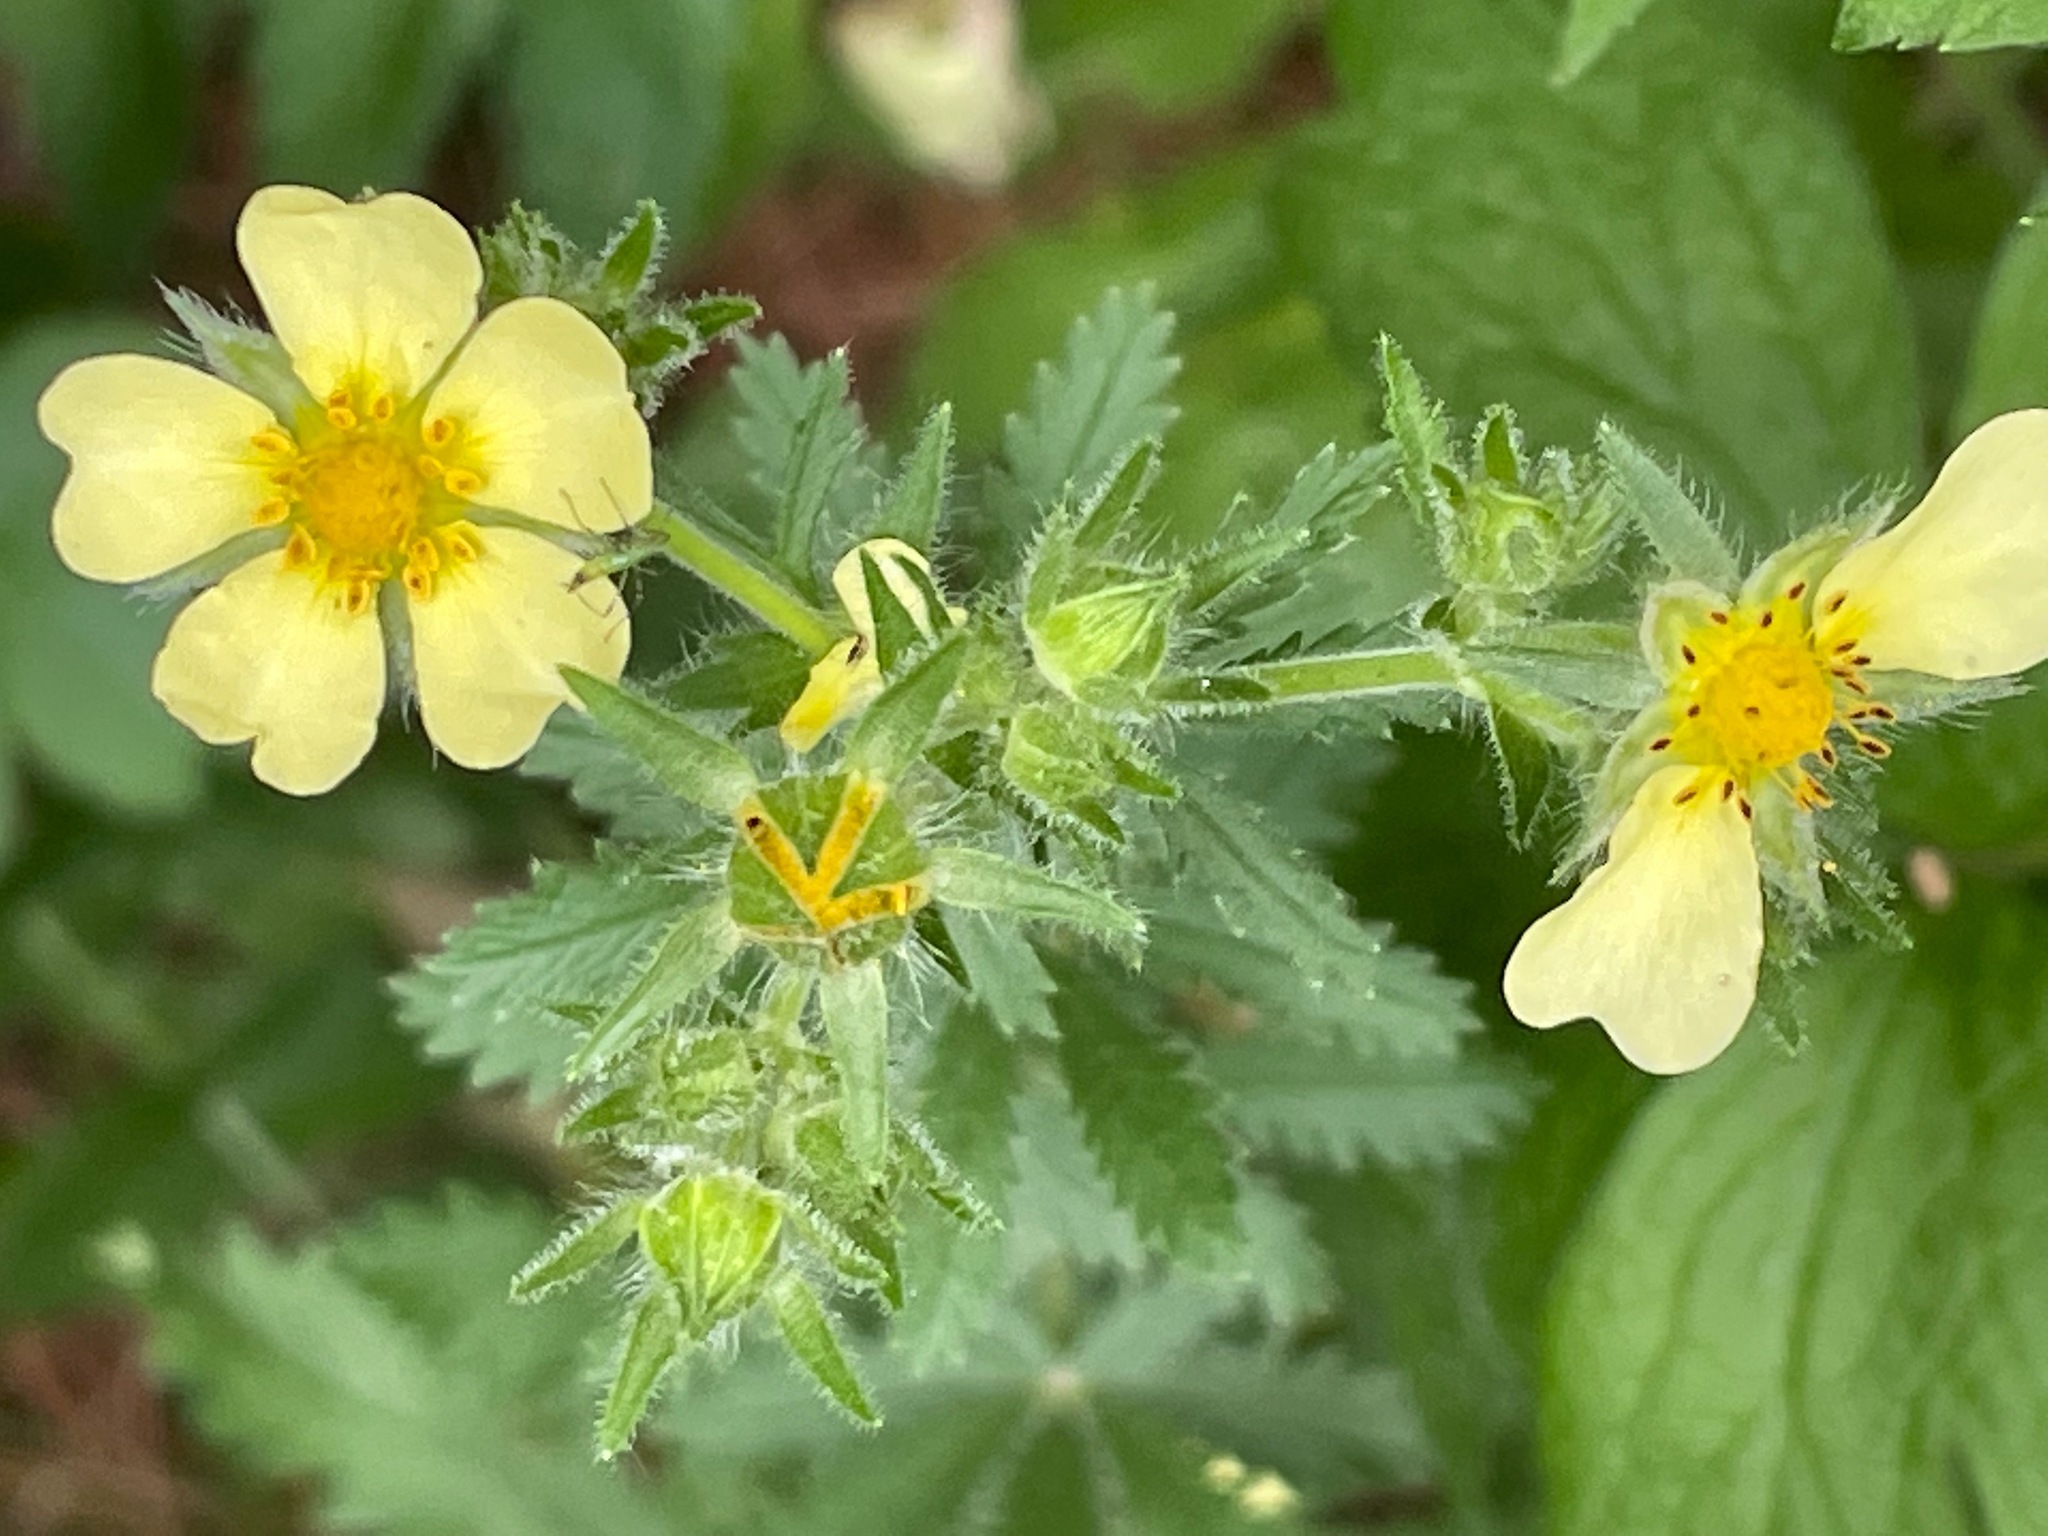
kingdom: Plantae
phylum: Tracheophyta
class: Magnoliopsida
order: Rosales
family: Rosaceae
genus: Potentilla
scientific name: Potentilla recta
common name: Sulphur cinquefoil
